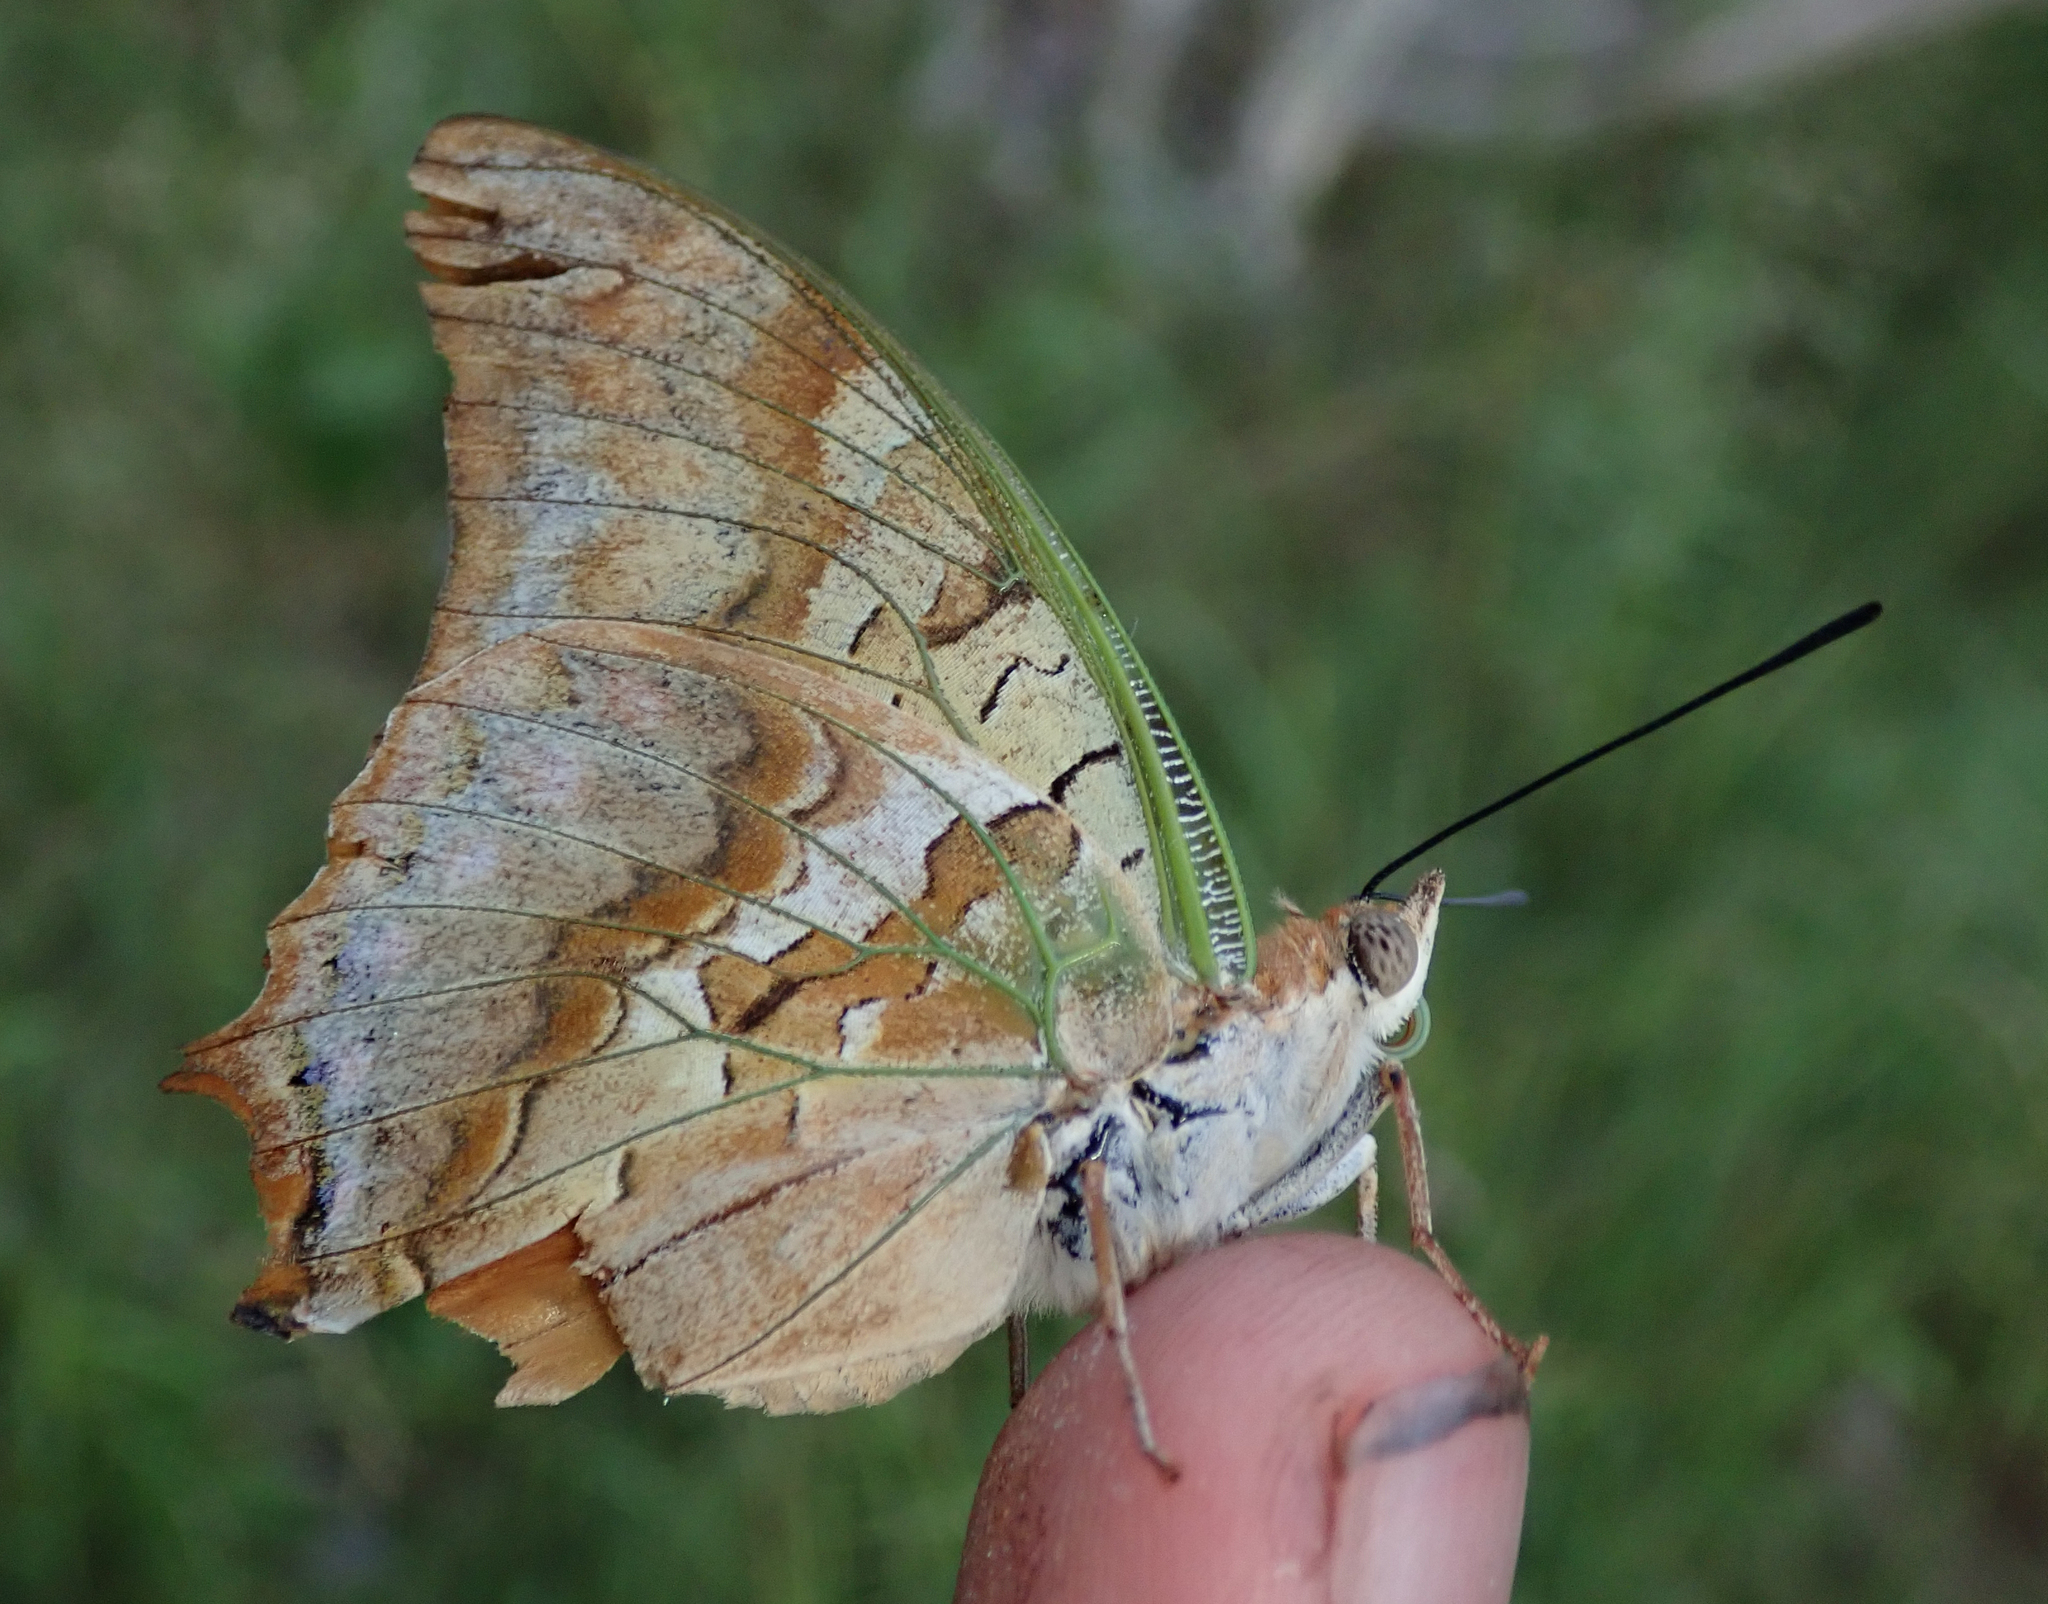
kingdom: Animalia
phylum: Arthropoda
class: Insecta
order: Lepidoptera
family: Nymphalidae
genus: Charaxes
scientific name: Charaxes candiope
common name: Green-veined charaxes
